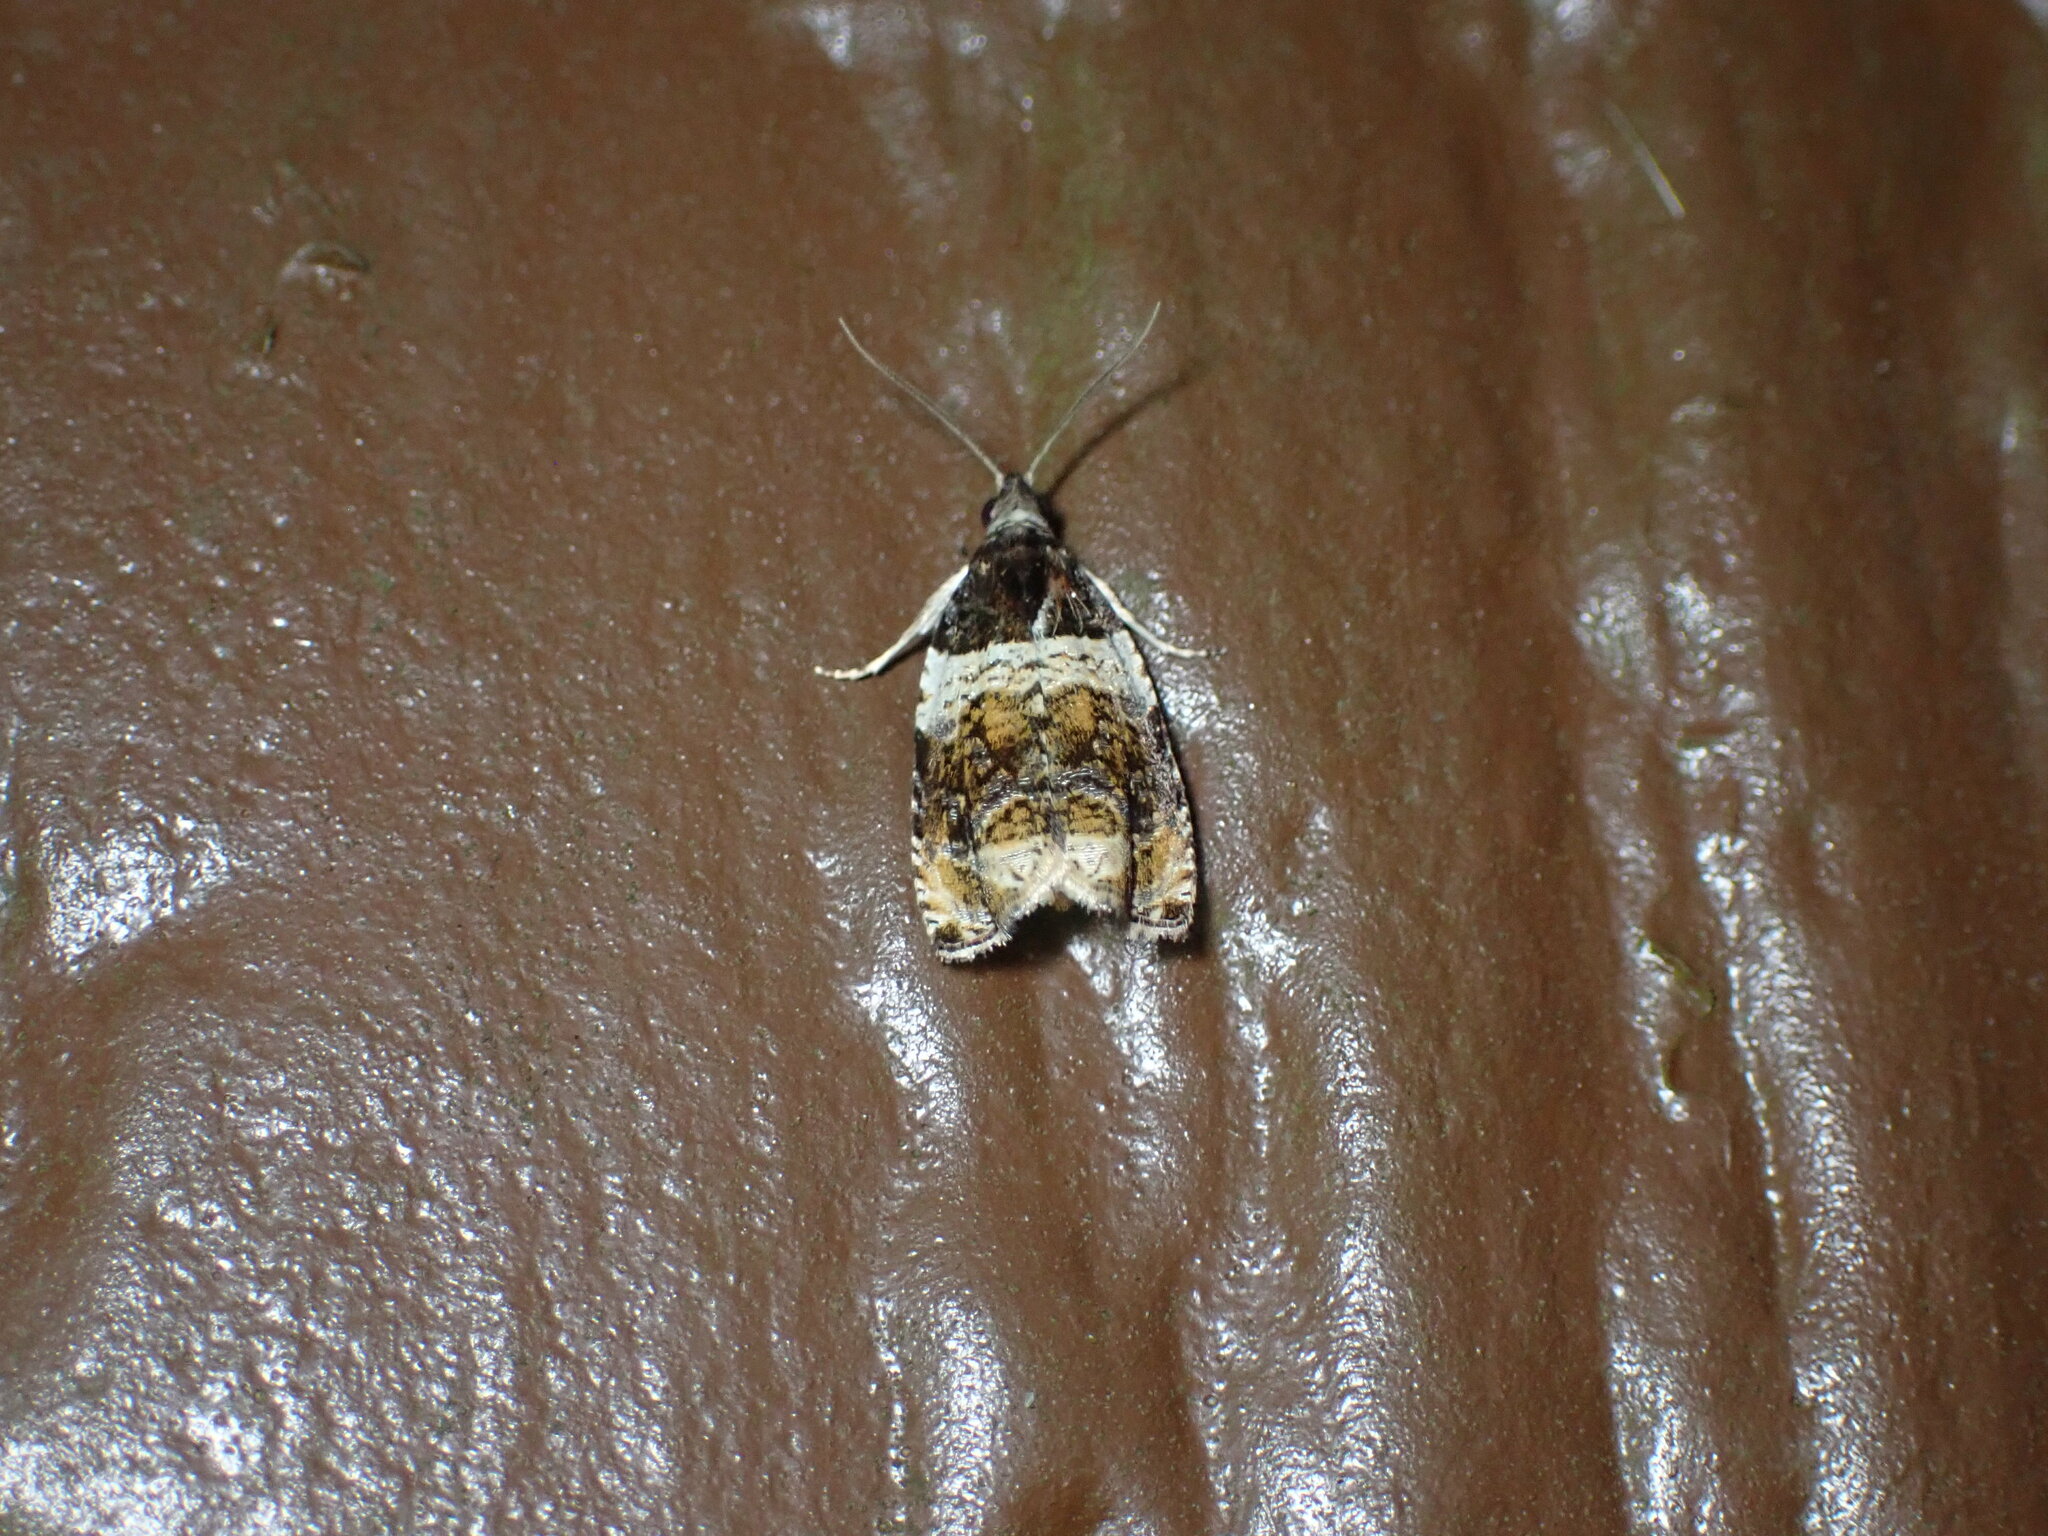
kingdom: Animalia
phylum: Arthropoda
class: Insecta
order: Lepidoptera
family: Tortricidae
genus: Olethreutes
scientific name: Olethreutes fasciatana
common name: Banded olethreutes moth
